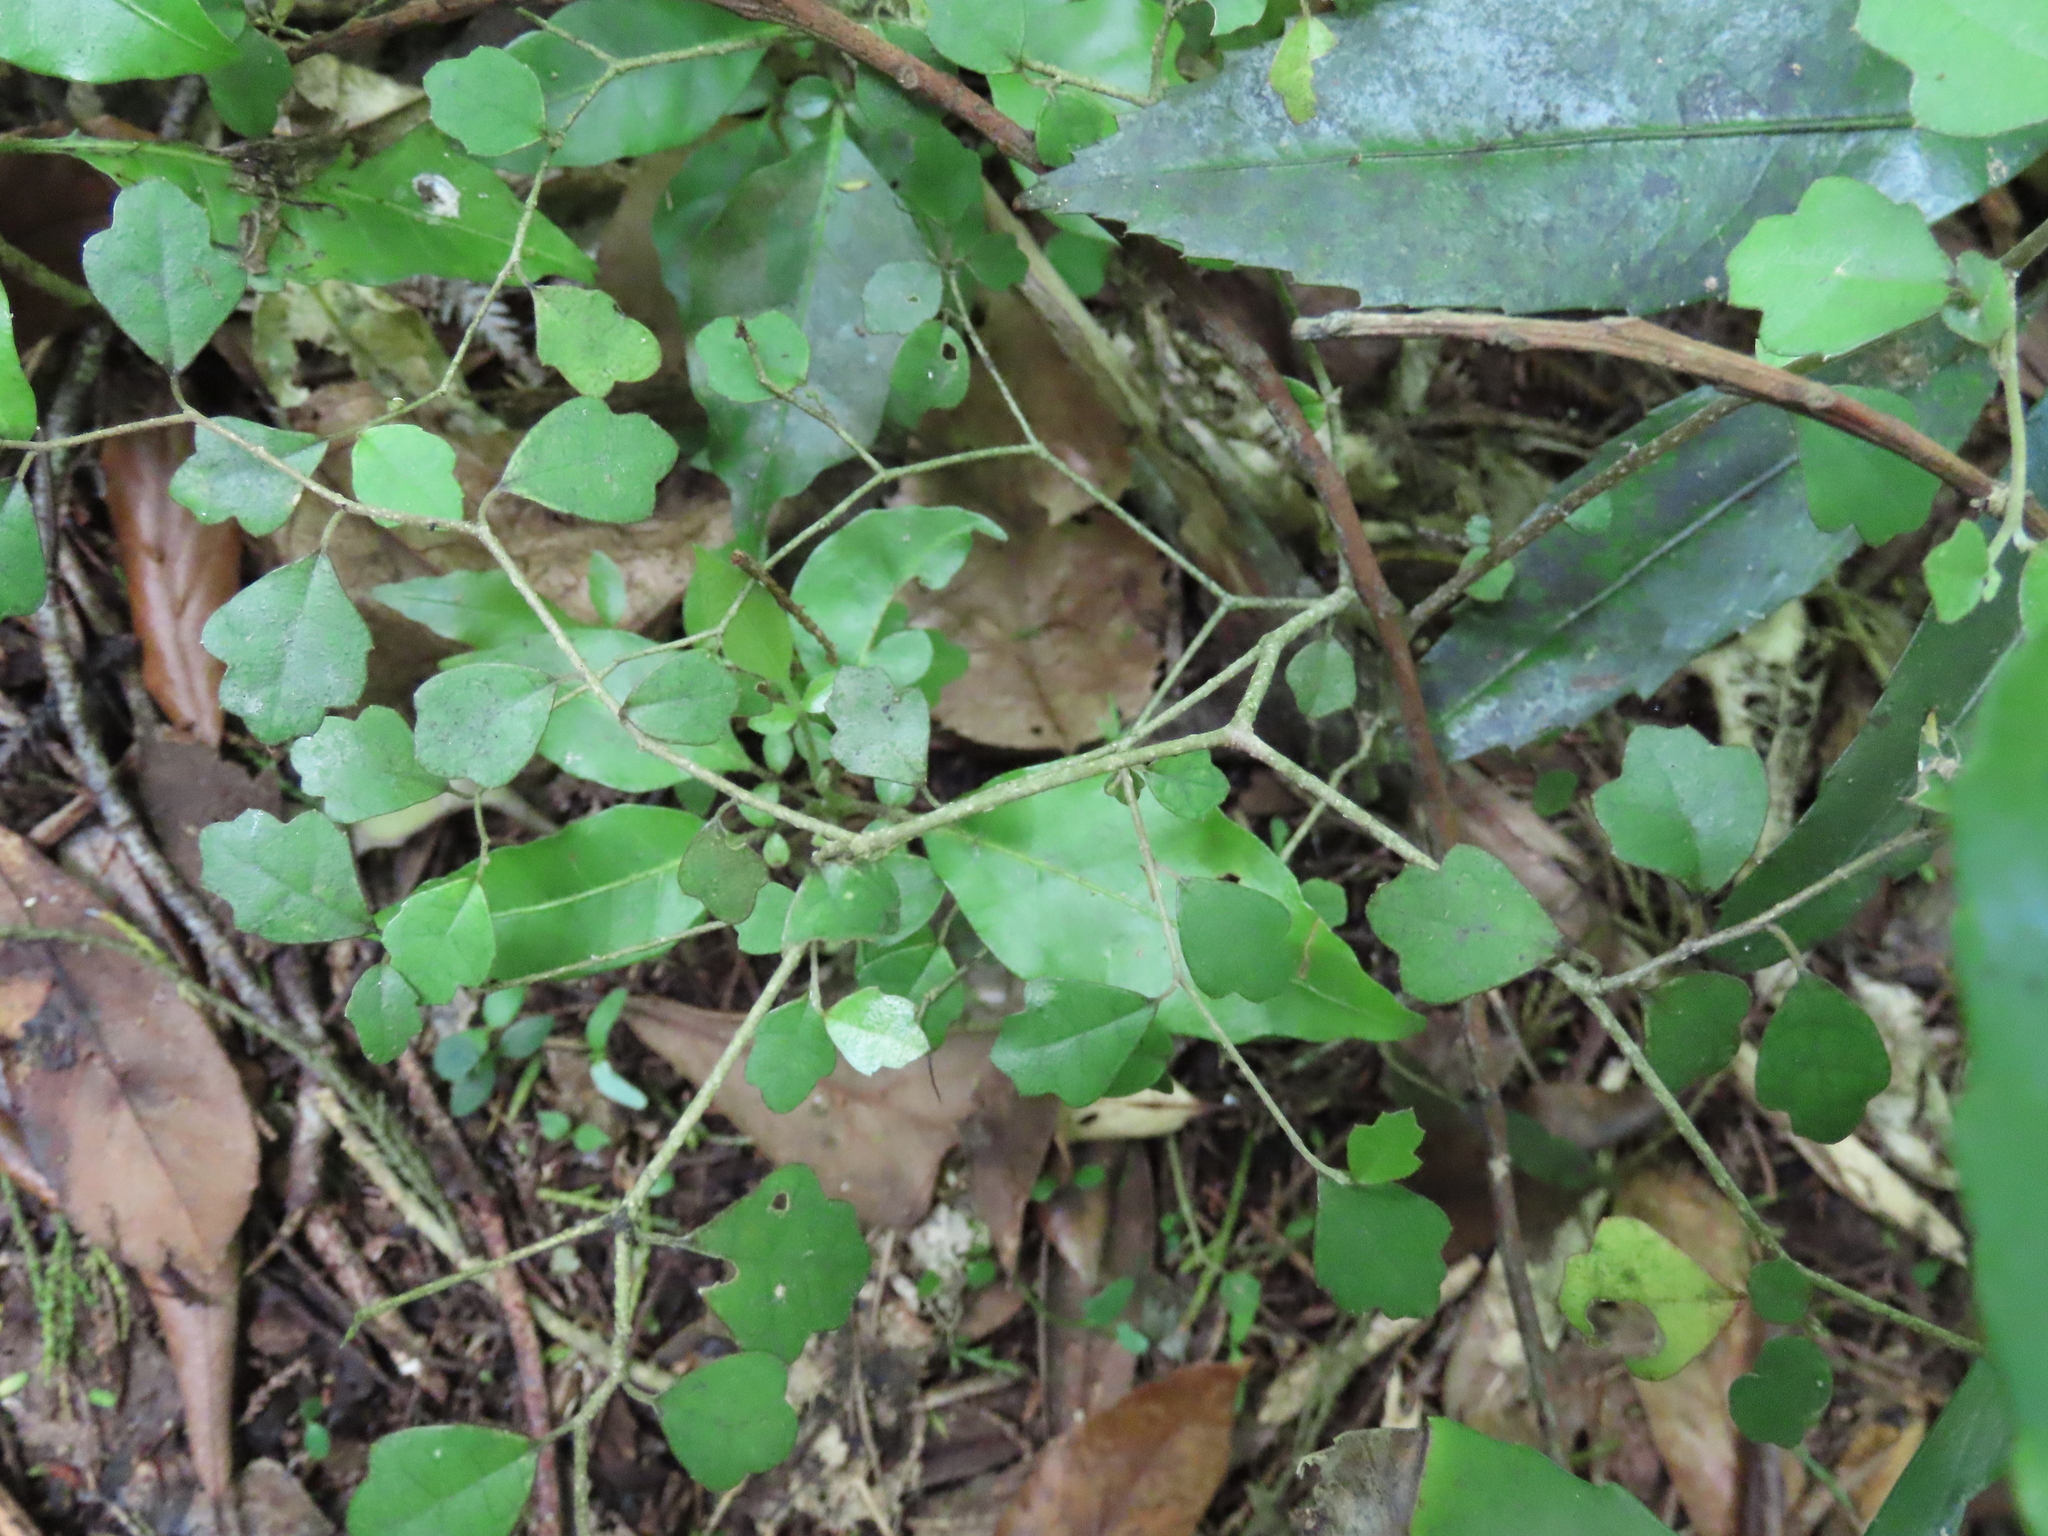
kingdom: Plantae
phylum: Tracheophyta
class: Magnoliopsida
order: Apiales
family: Pennantiaceae
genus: Pennantia
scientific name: Pennantia corymbosa
